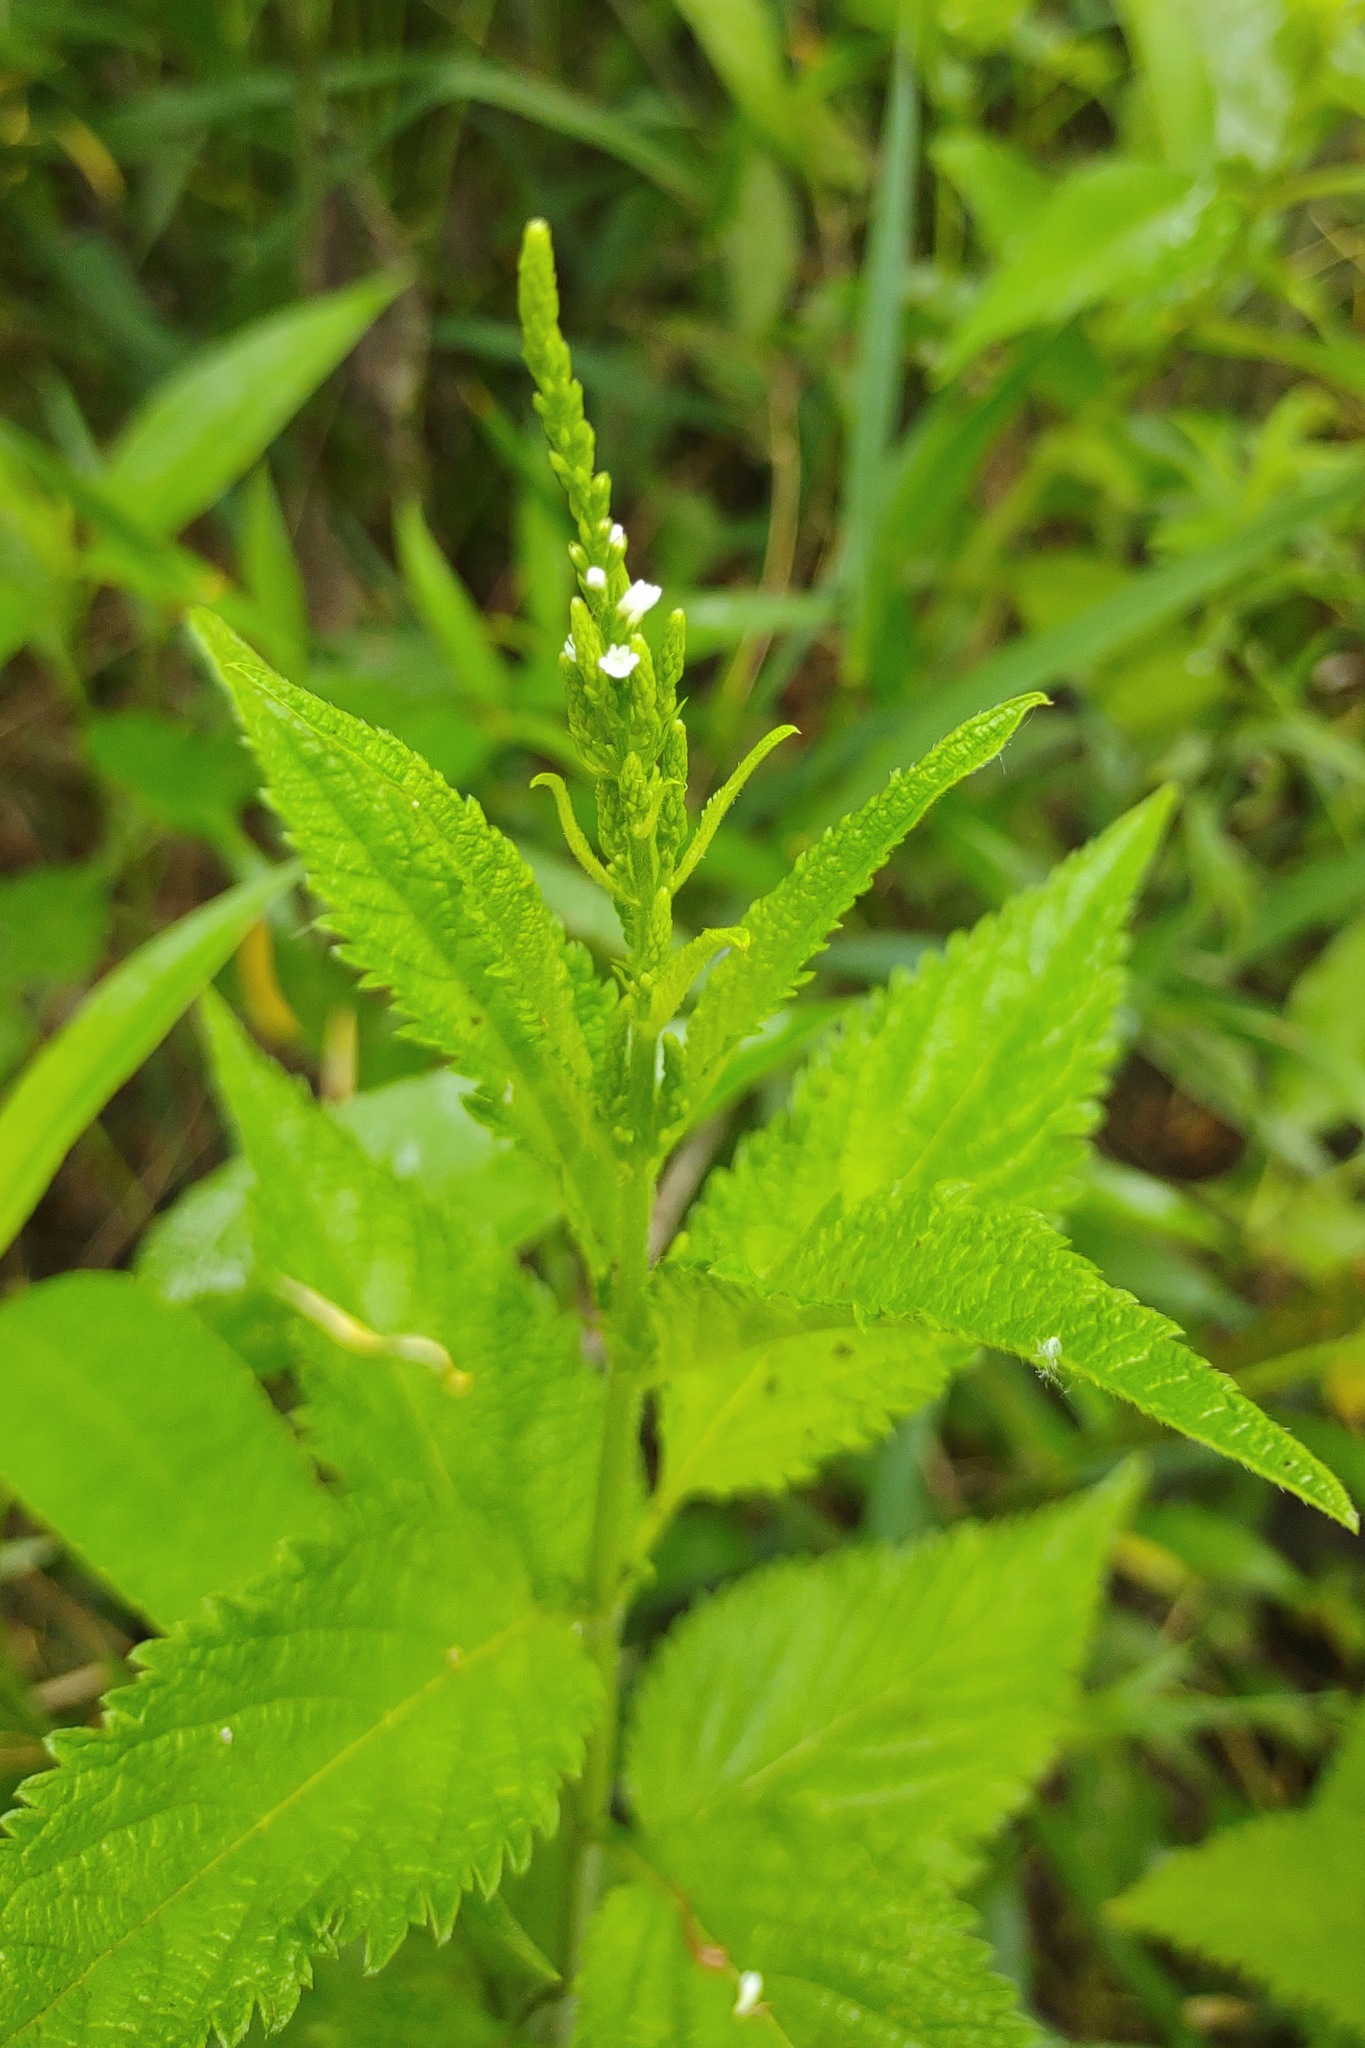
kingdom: Plantae
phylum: Tracheophyta
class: Magnoliopsida
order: Lamiales
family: Verbenaceae
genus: Verbena
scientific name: Verbena urticifolia
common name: Nettle-leaved vervain
